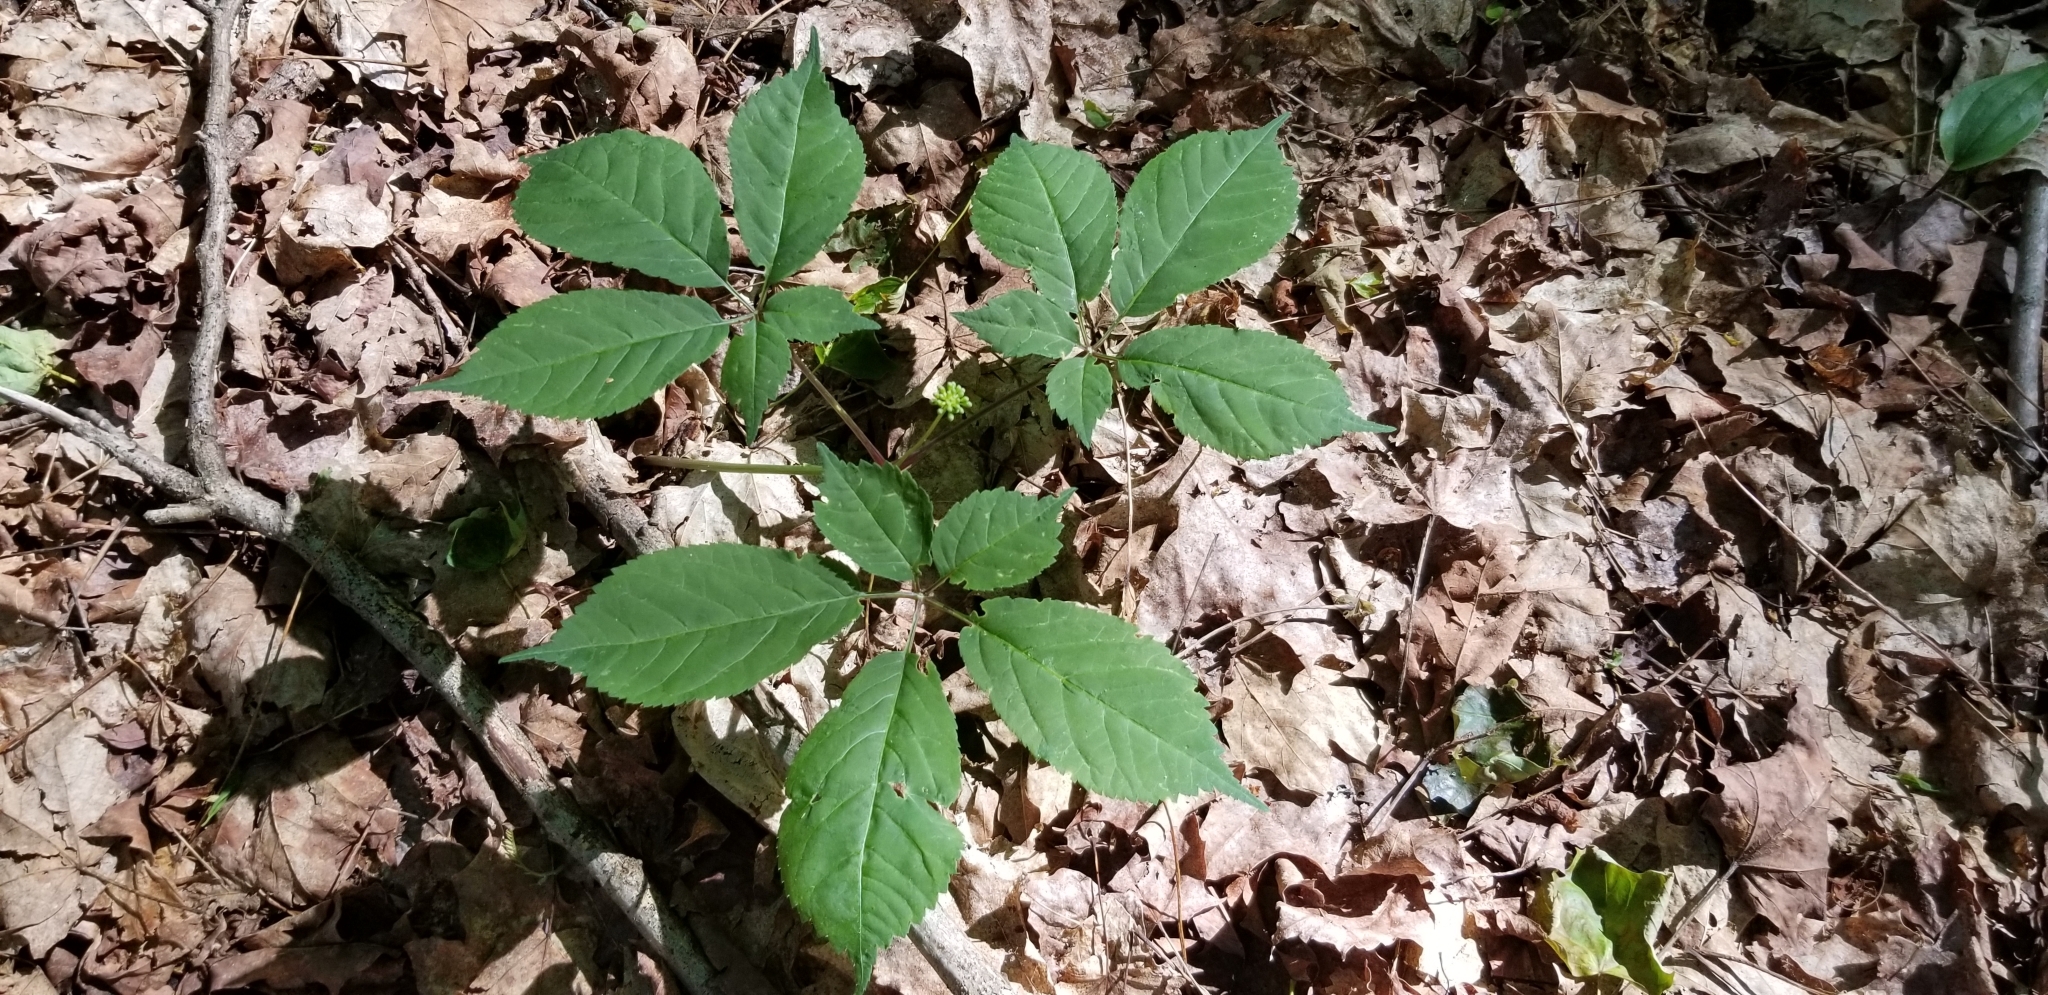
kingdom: Plantae
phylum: Tracheophyta
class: Magnoliopsida
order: Apiales
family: Araliaceae
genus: Panax
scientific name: Panax quinquefolius
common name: American ginseng
